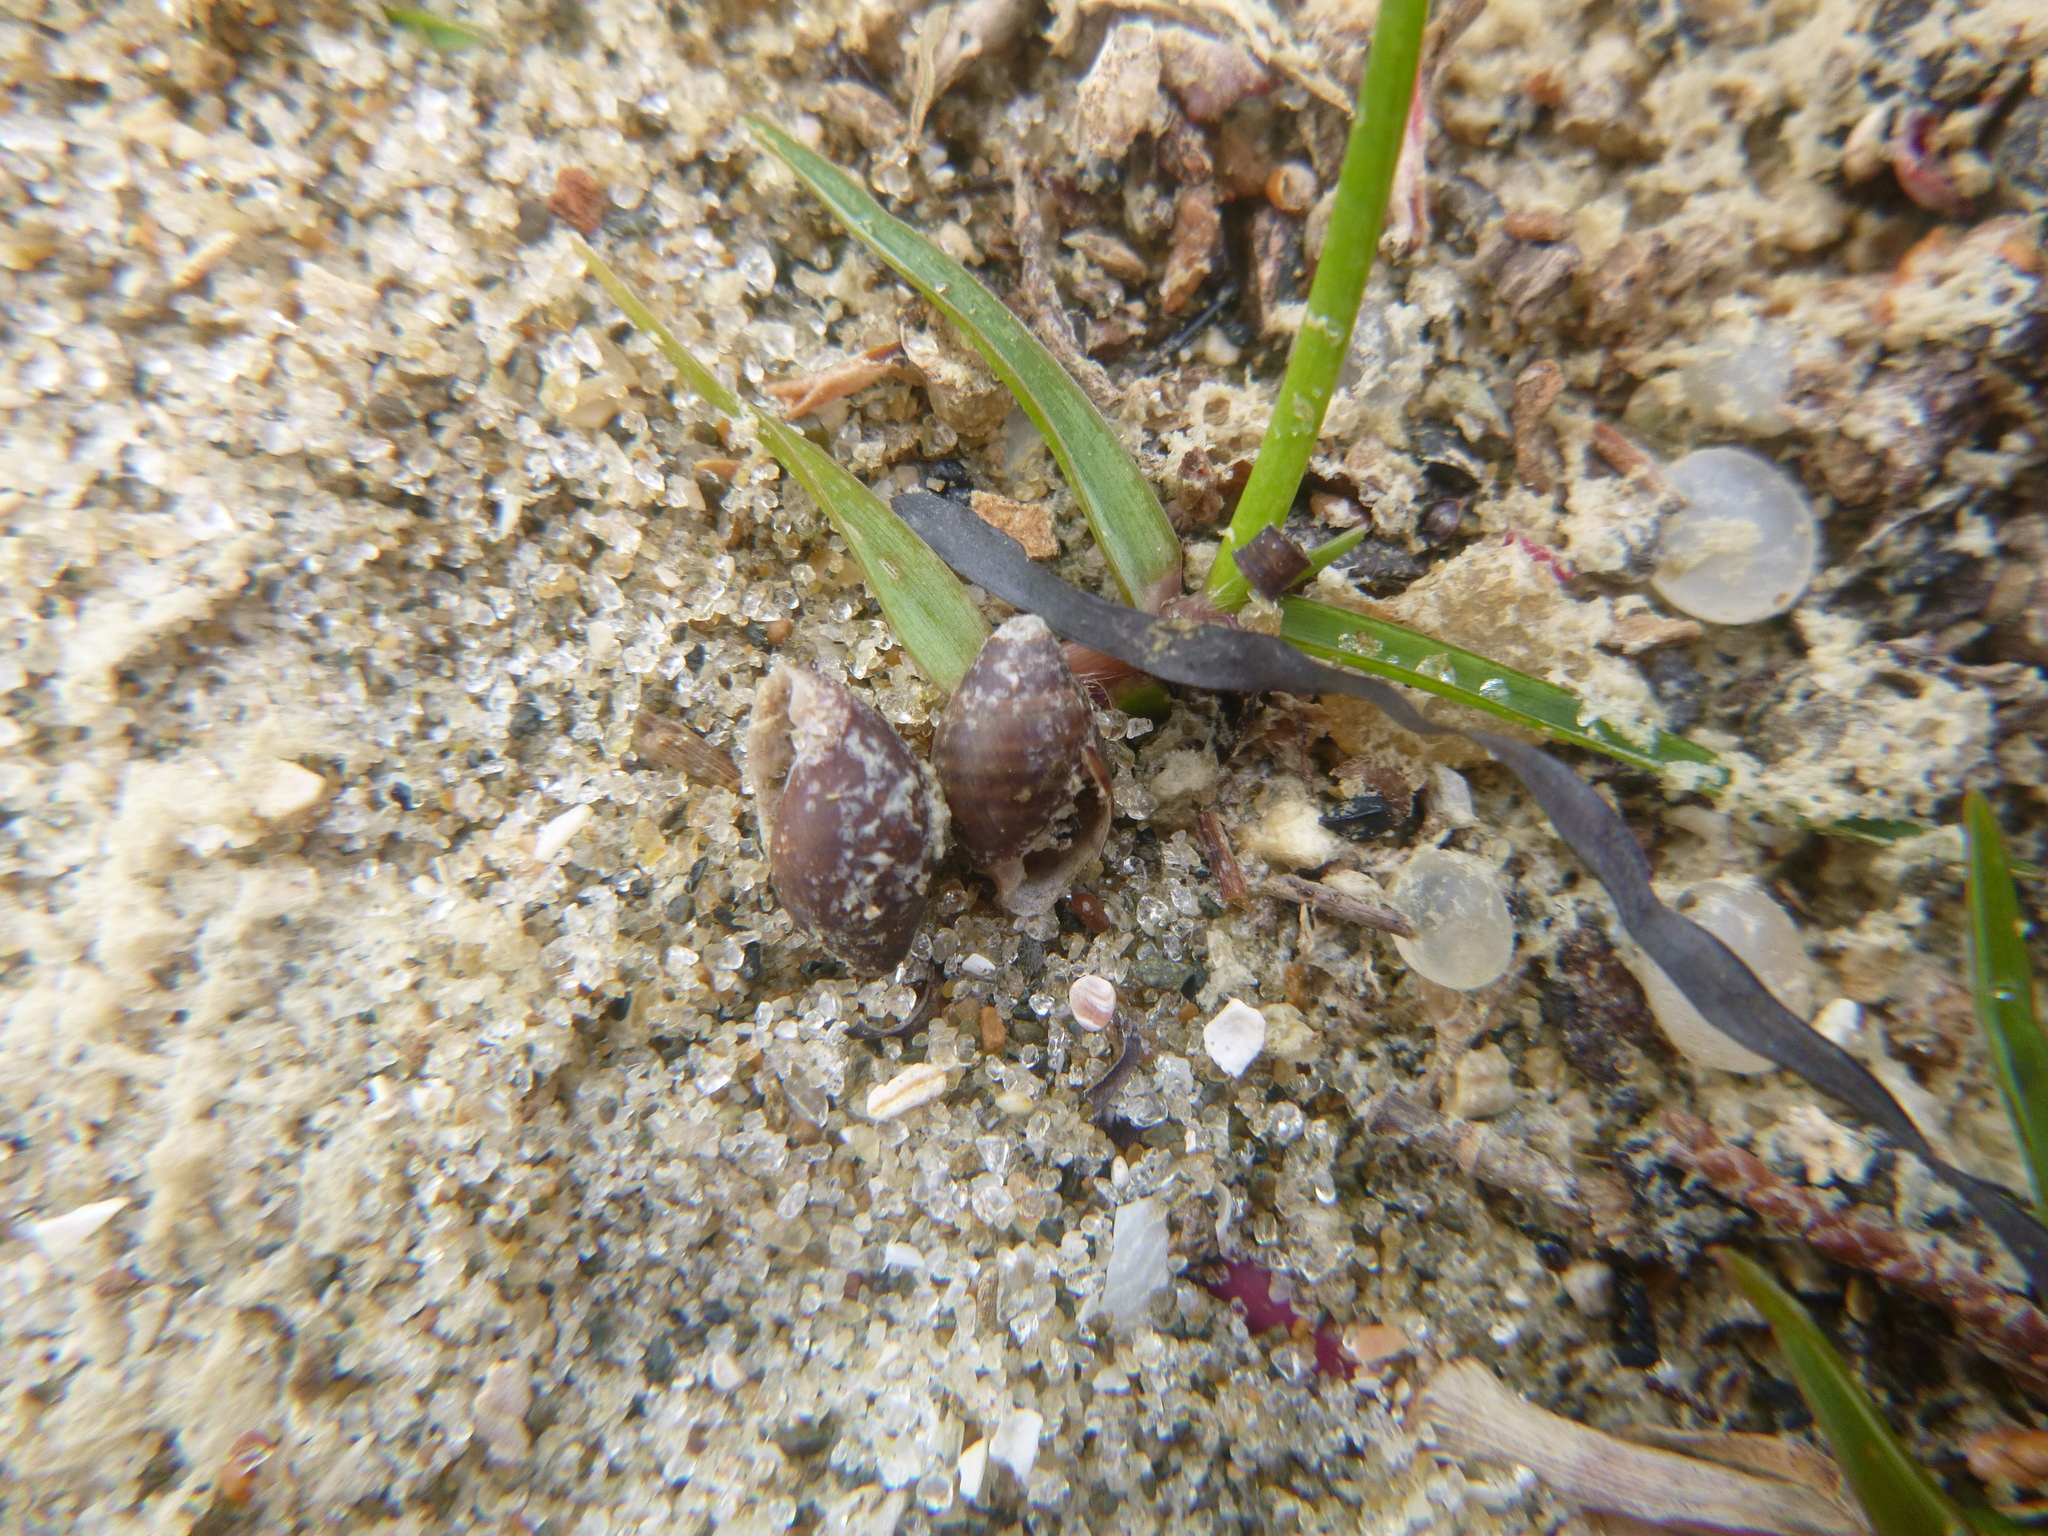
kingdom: Animalia
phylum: Mollusca
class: Gastropoda
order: Ellobiida
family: Ellobiidae
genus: Pleuroloba
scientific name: Pleuroloba costellaris
